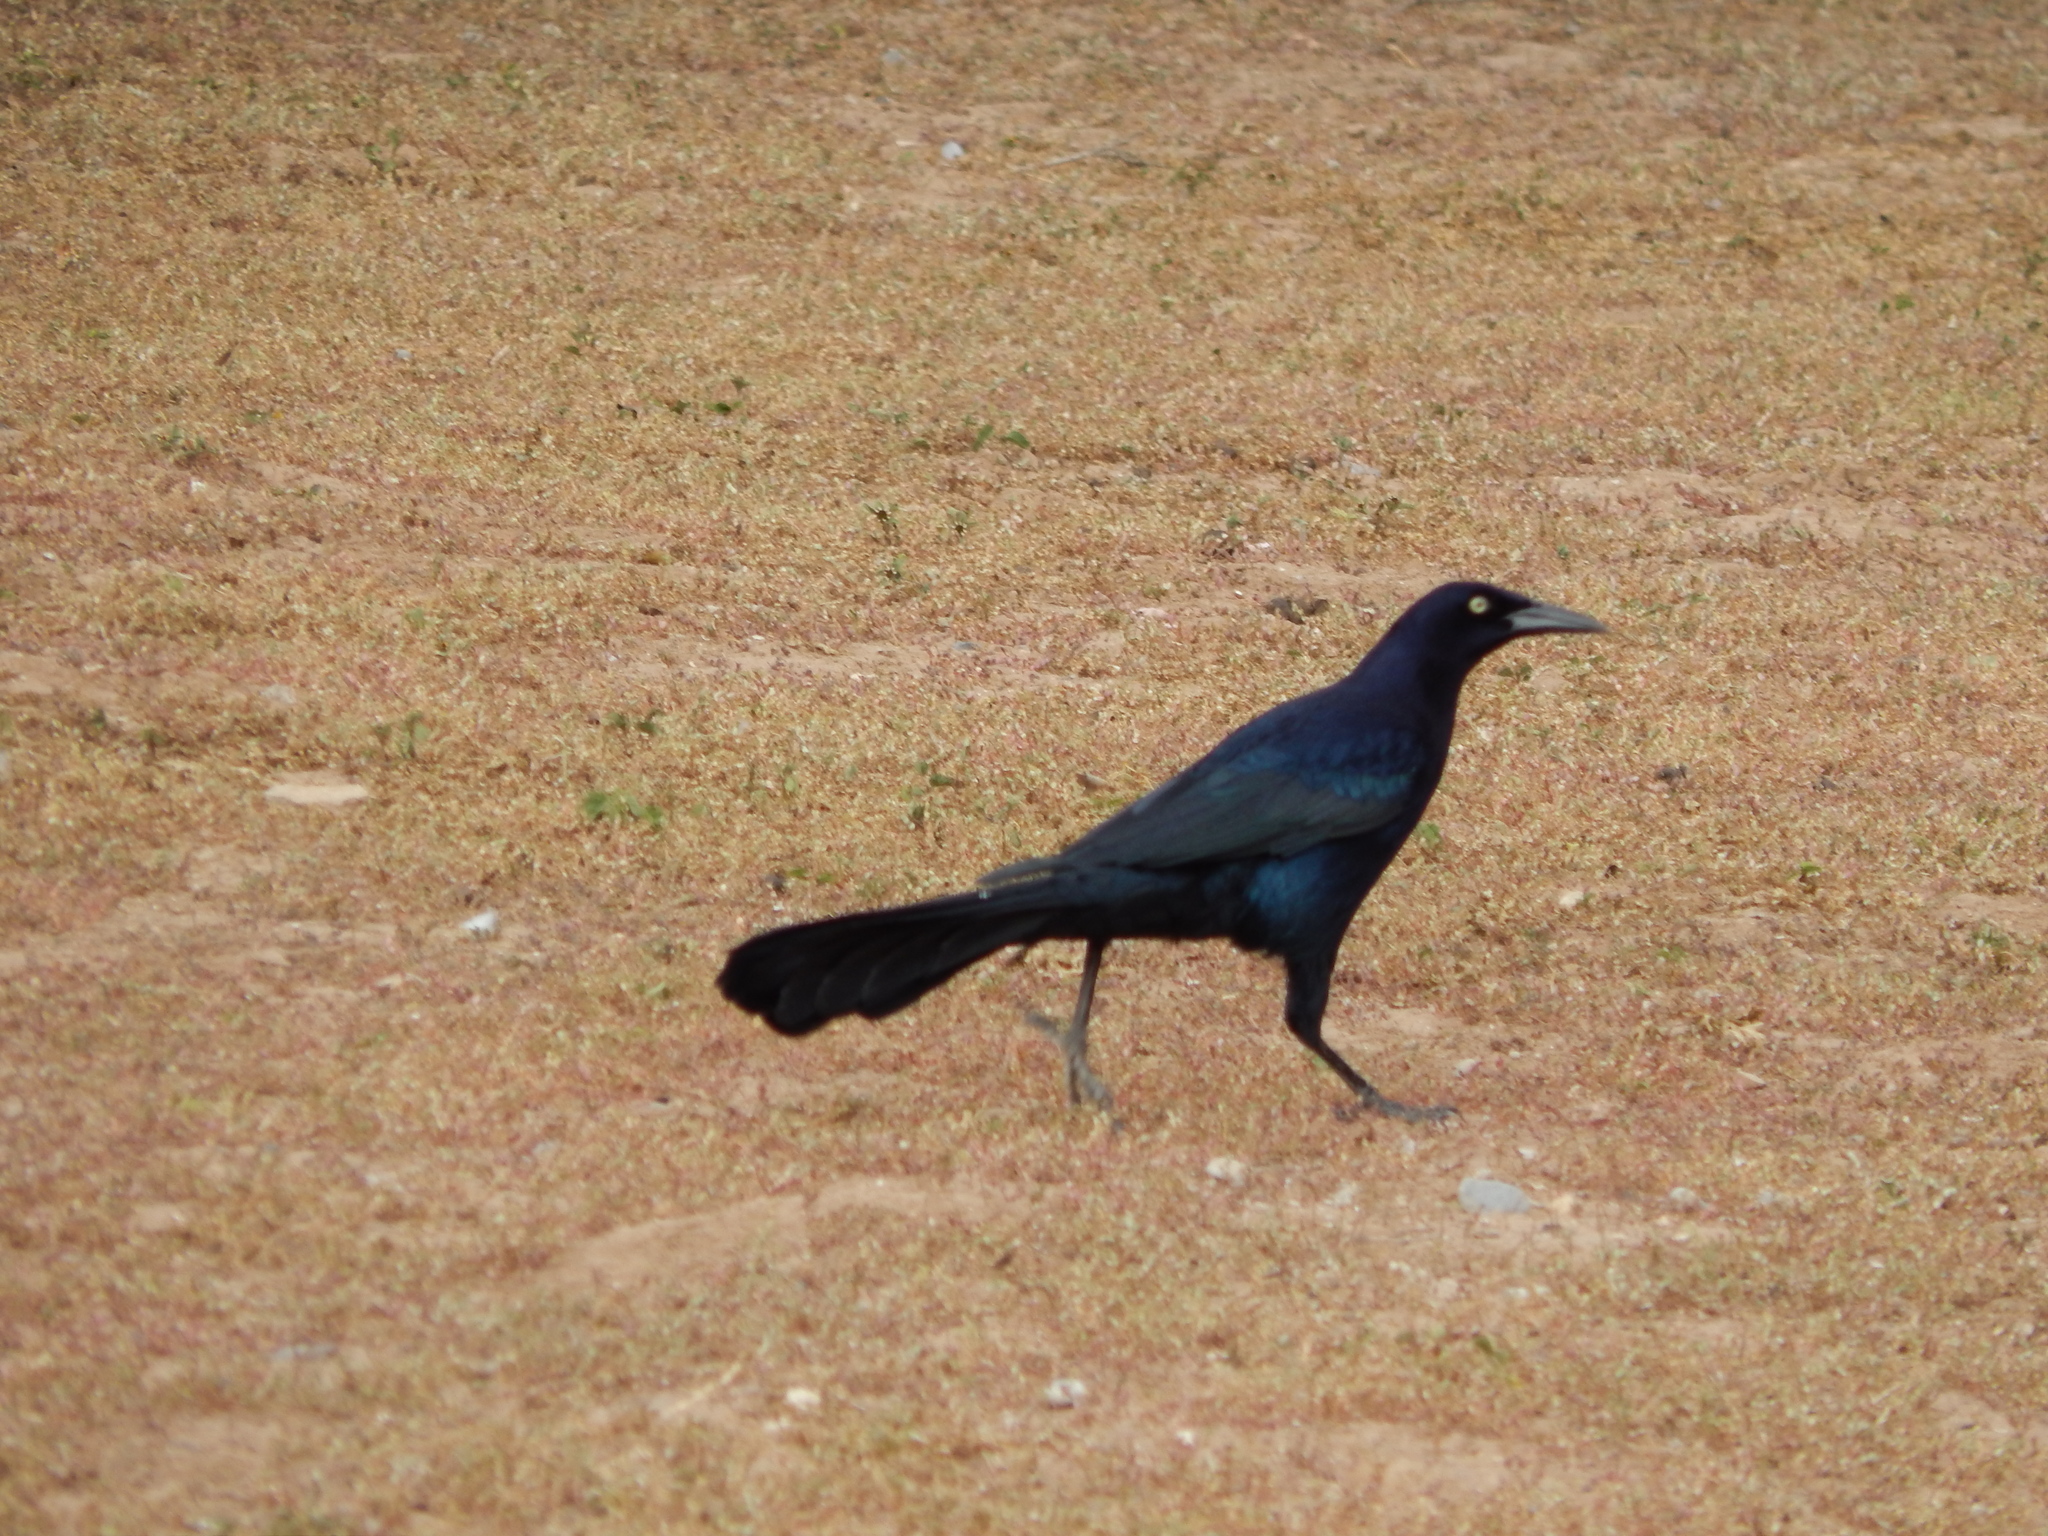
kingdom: Animalia
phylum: Chordata
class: Aves
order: Passeriformes
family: Icteridae
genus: Quiscalus
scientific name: Quiscalus mexicanus
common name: Great-tailed grackle
